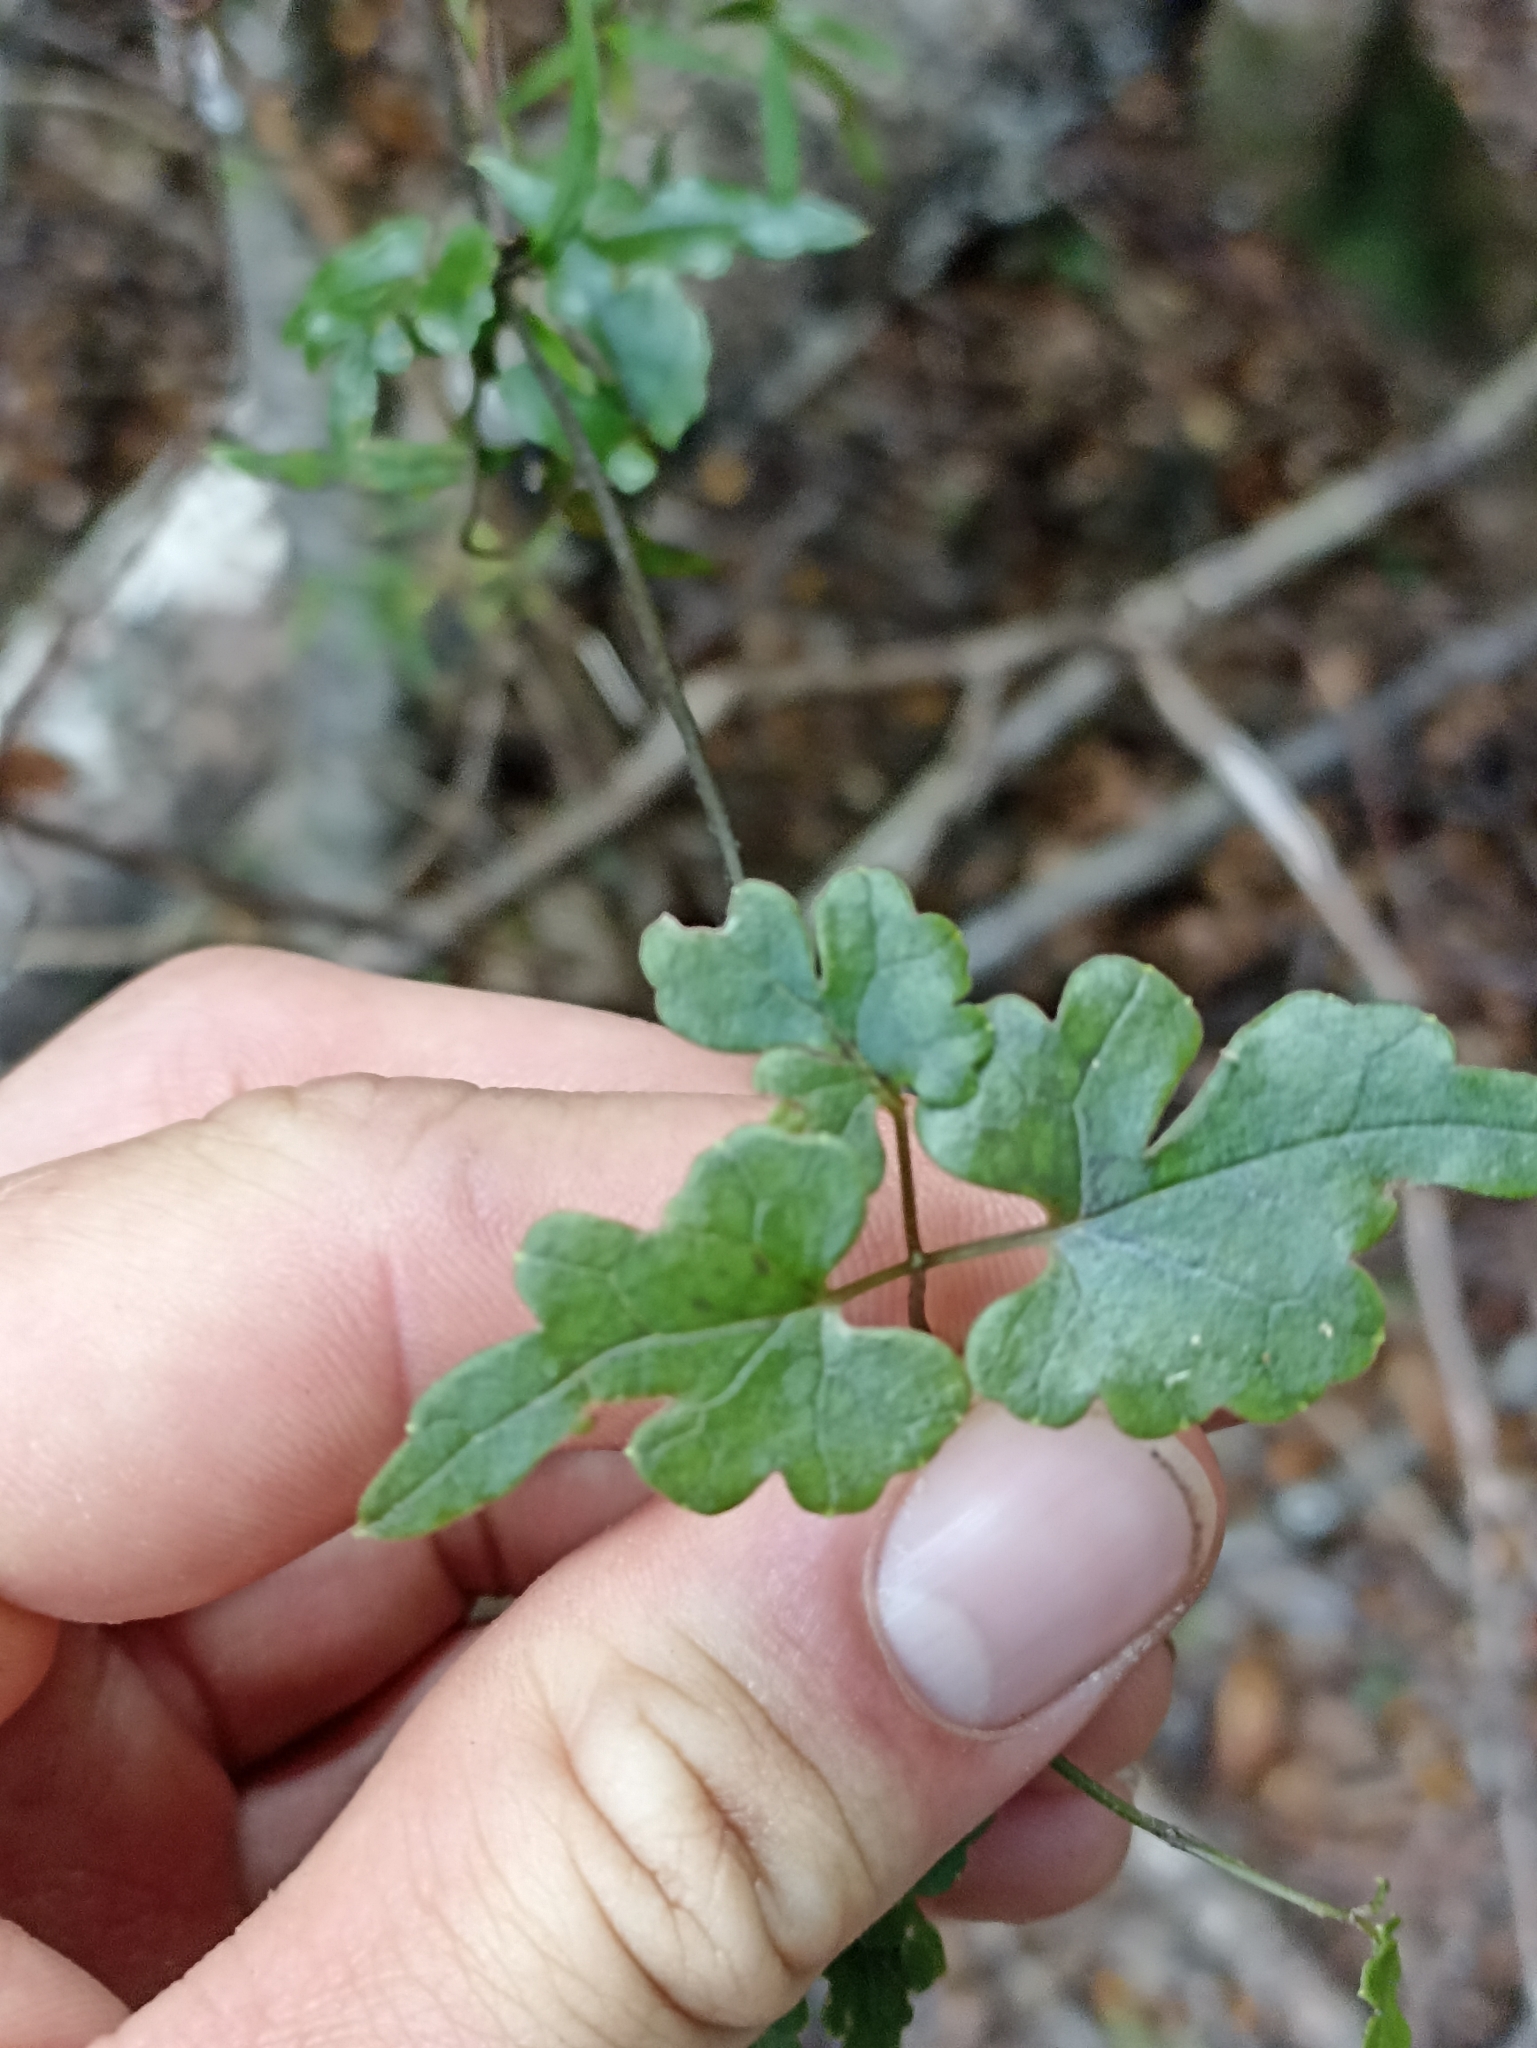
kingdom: Plantae
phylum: Tracheophyta
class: Magnoliopsida
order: Ranunculales
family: Ranunculaceae
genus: Clematis
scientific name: Clematis forsteri
